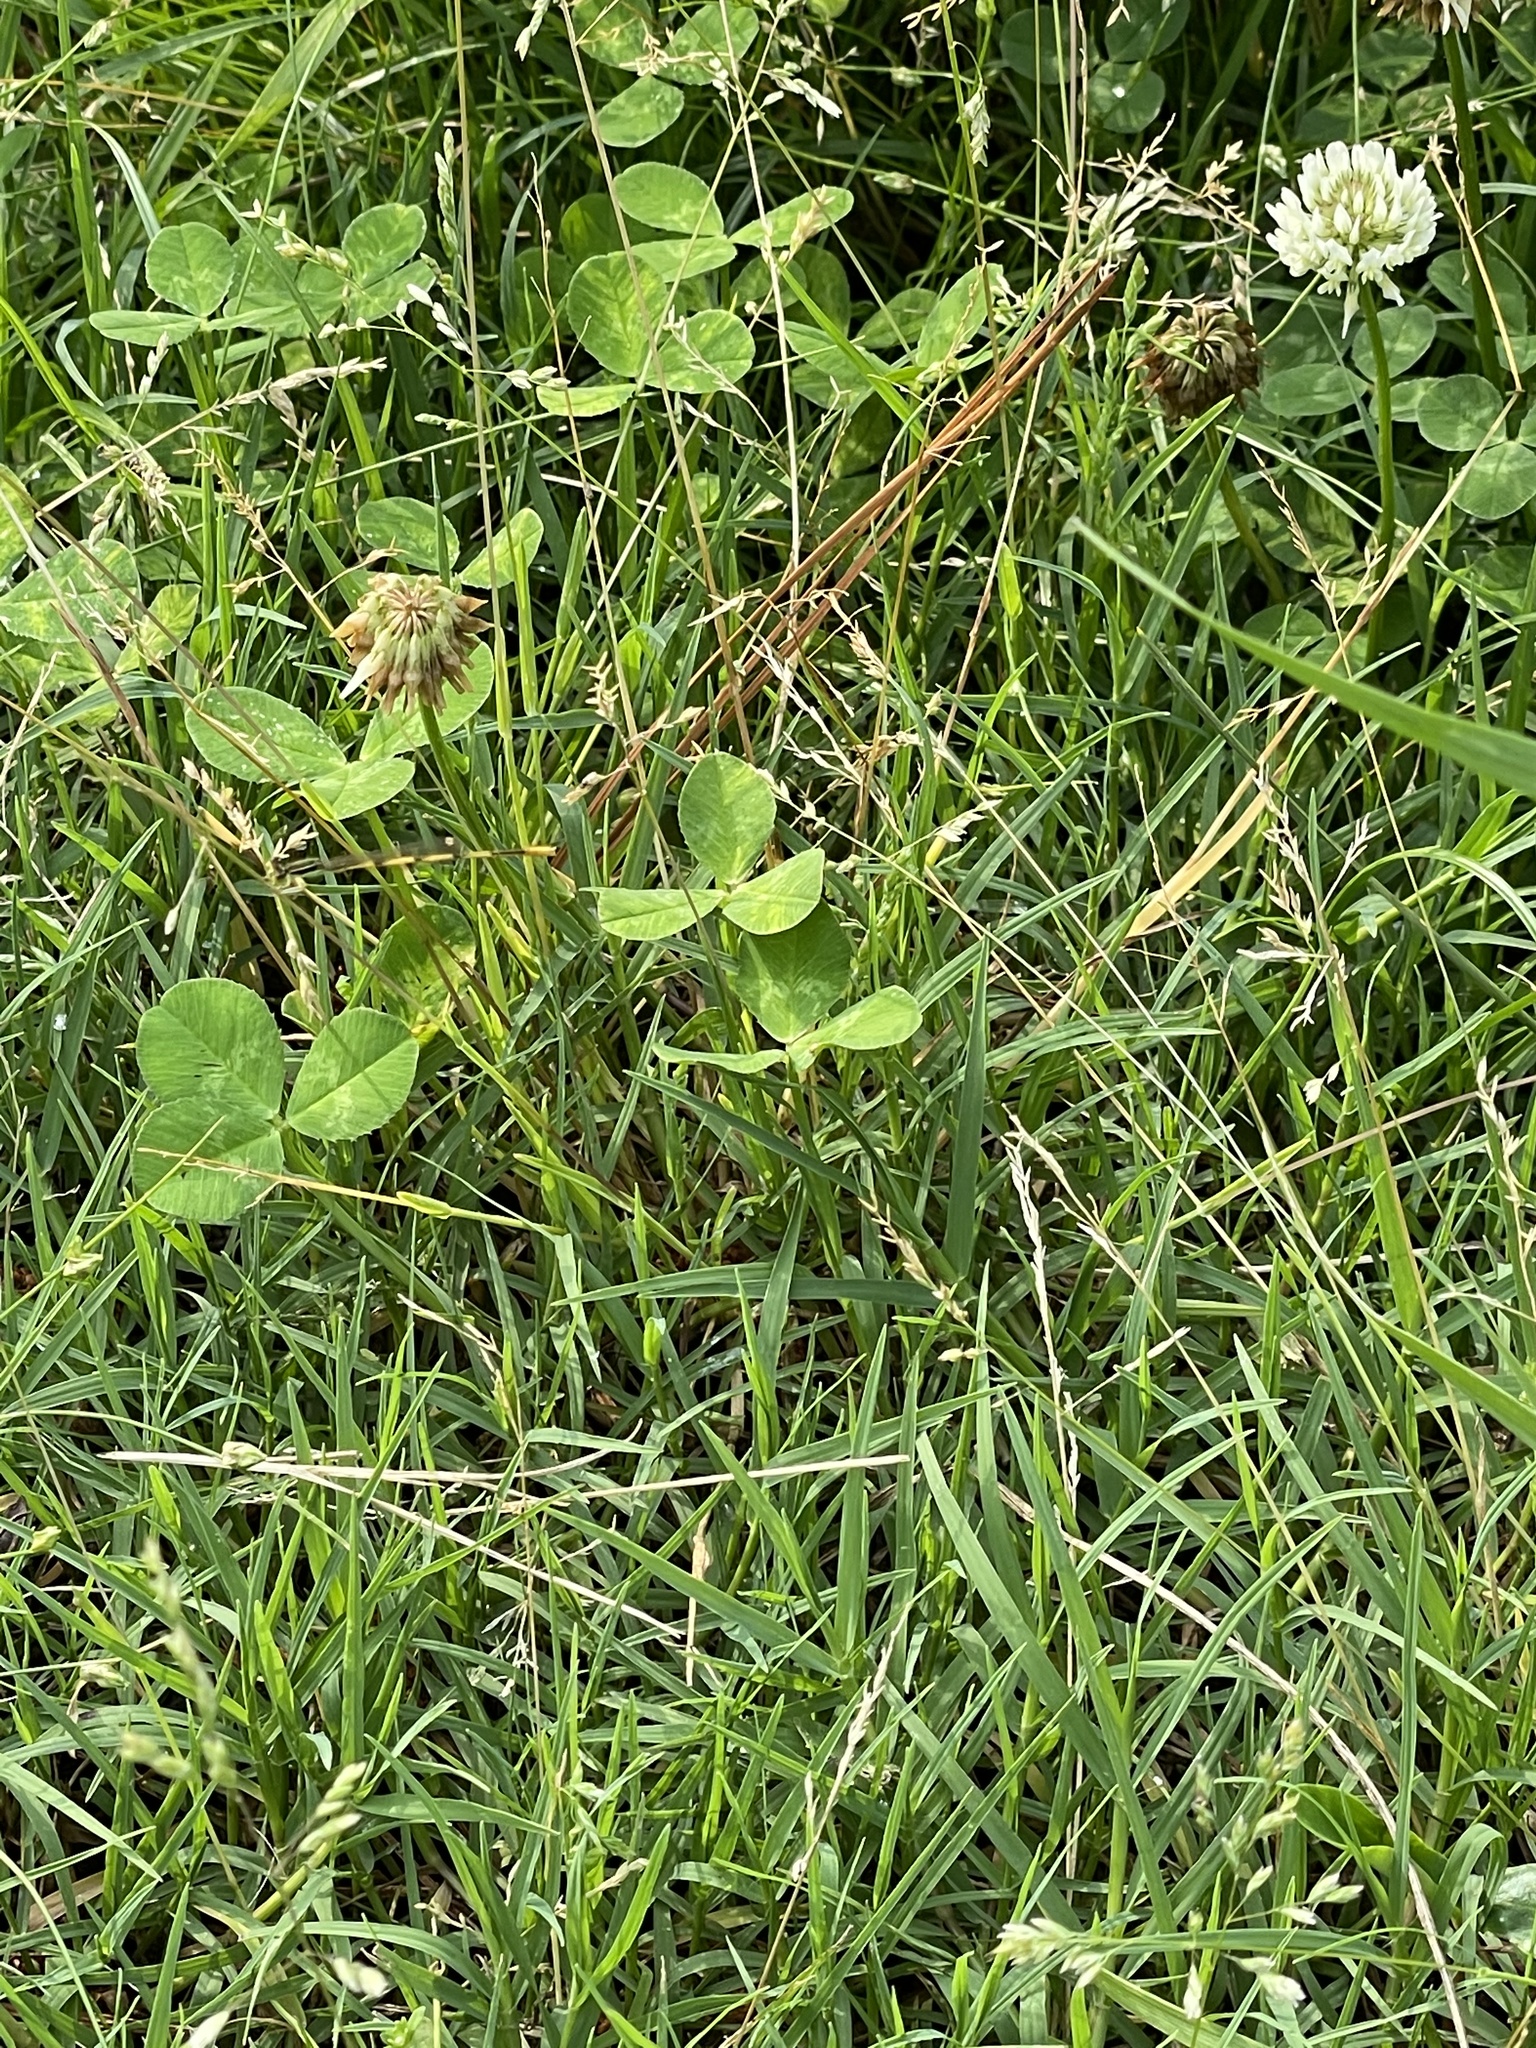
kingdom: Animalia
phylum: Arthropoda
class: Insecta
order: Odonata
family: Coenagrionidae
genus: Ischnura
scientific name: Ischnura hastata
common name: Citrine forktail
